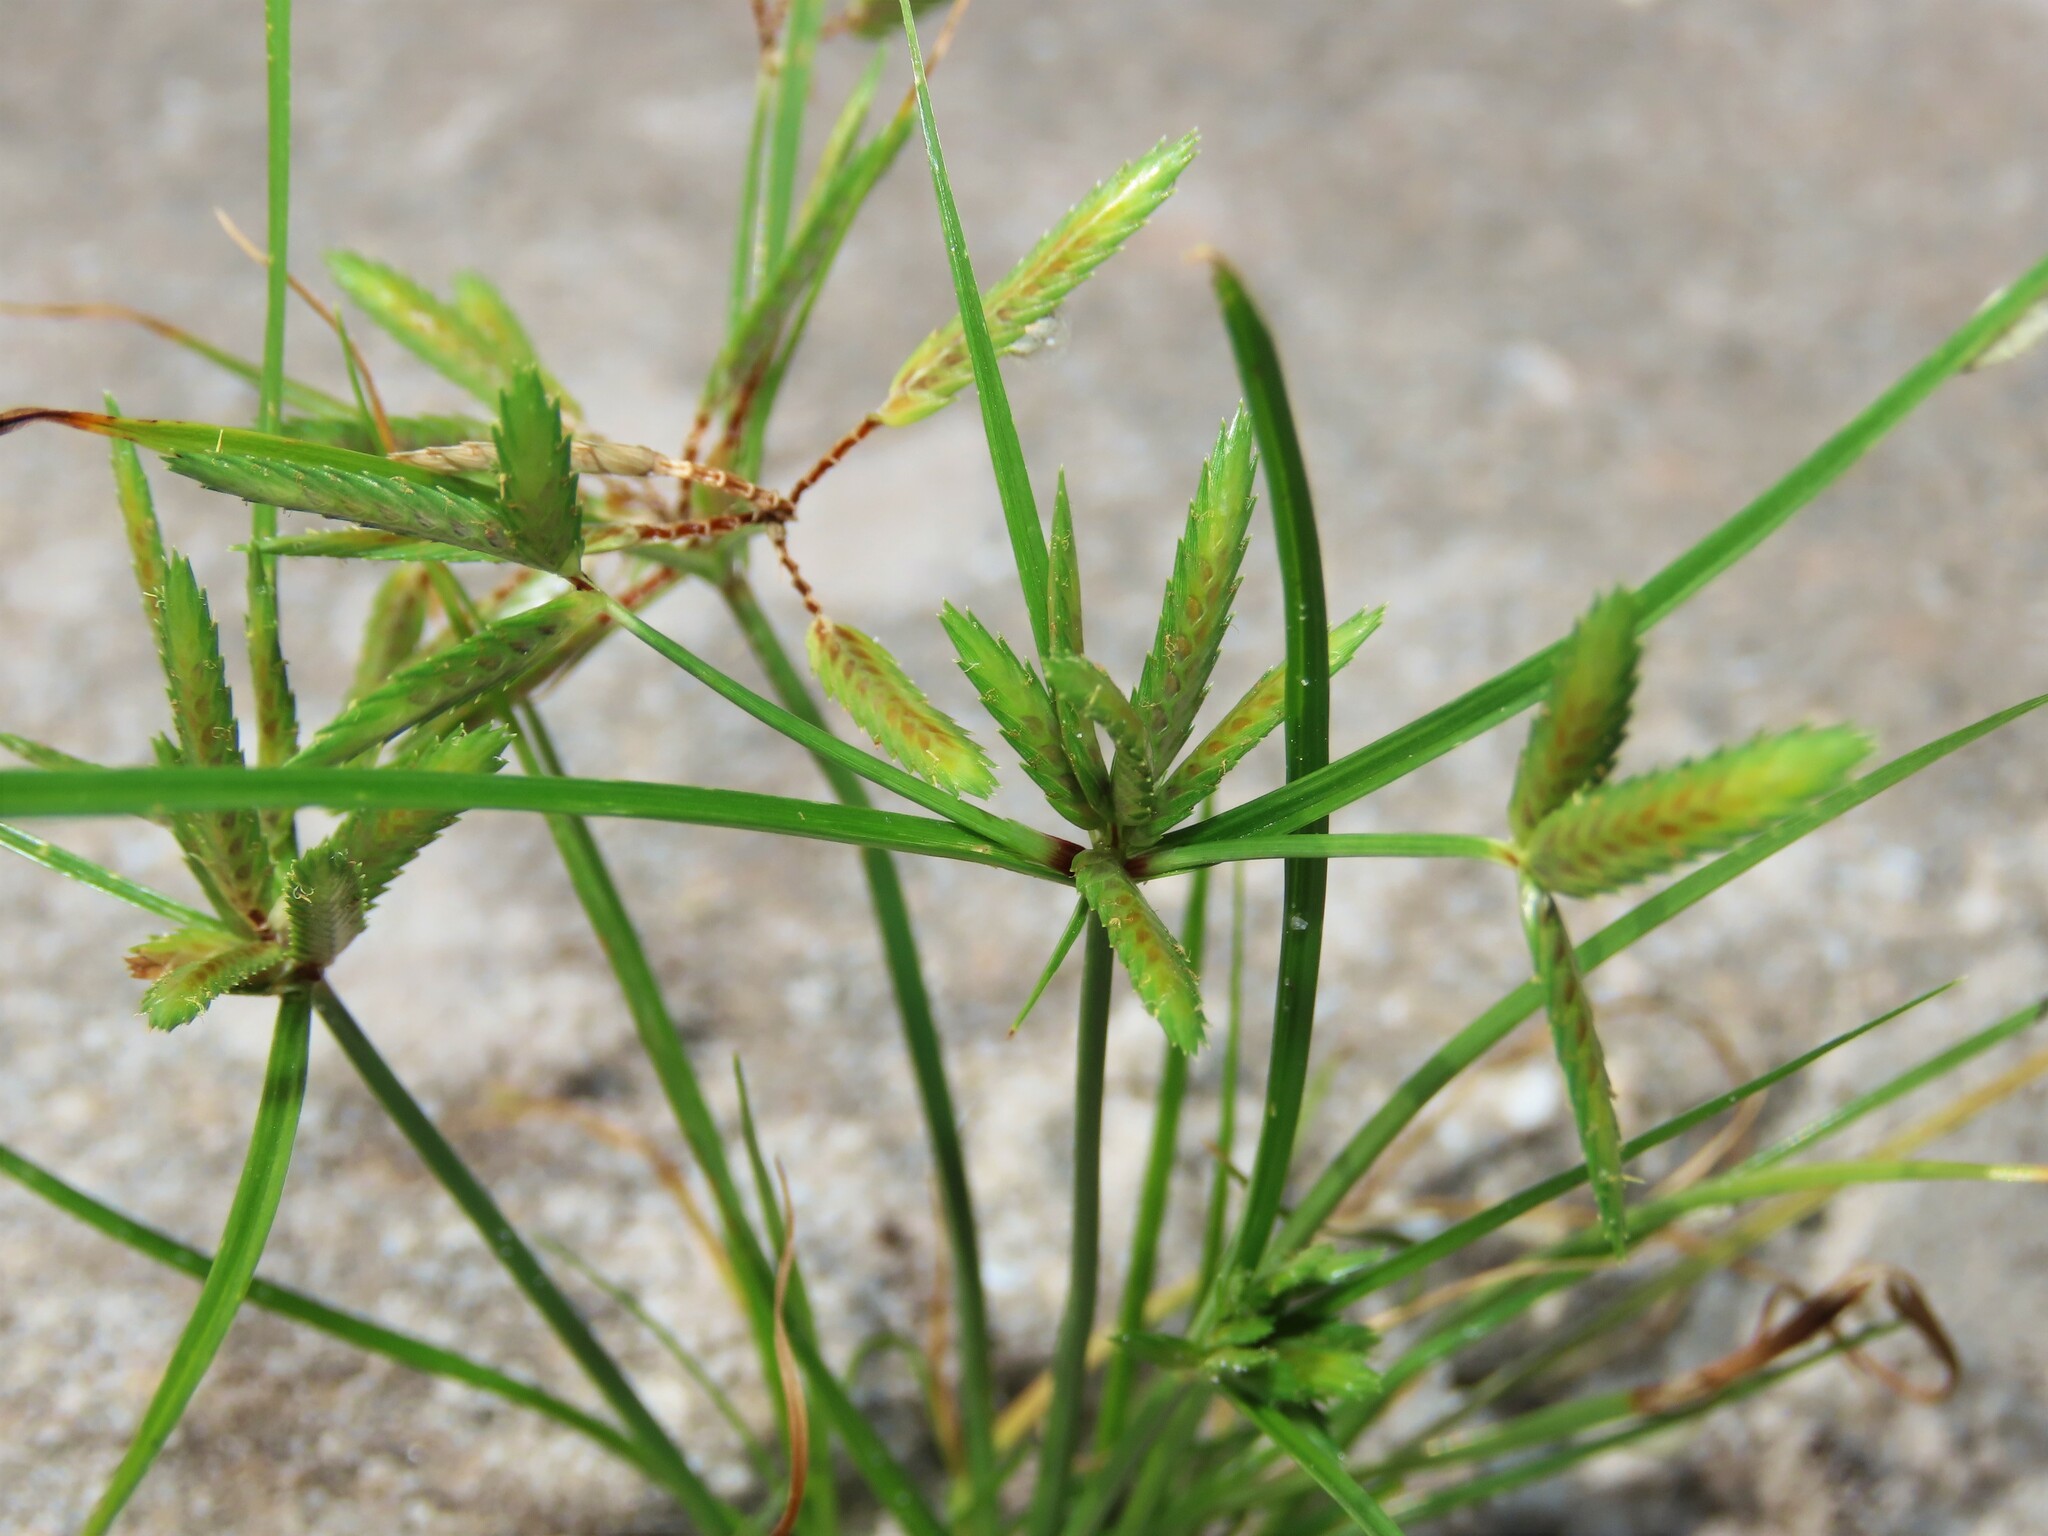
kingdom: Plantae
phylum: Tracheophyta
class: Liliopsida
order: Poales
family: Cyperaceae
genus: Cyperus
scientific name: Cyperus compressus
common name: Poorland flatsedge
